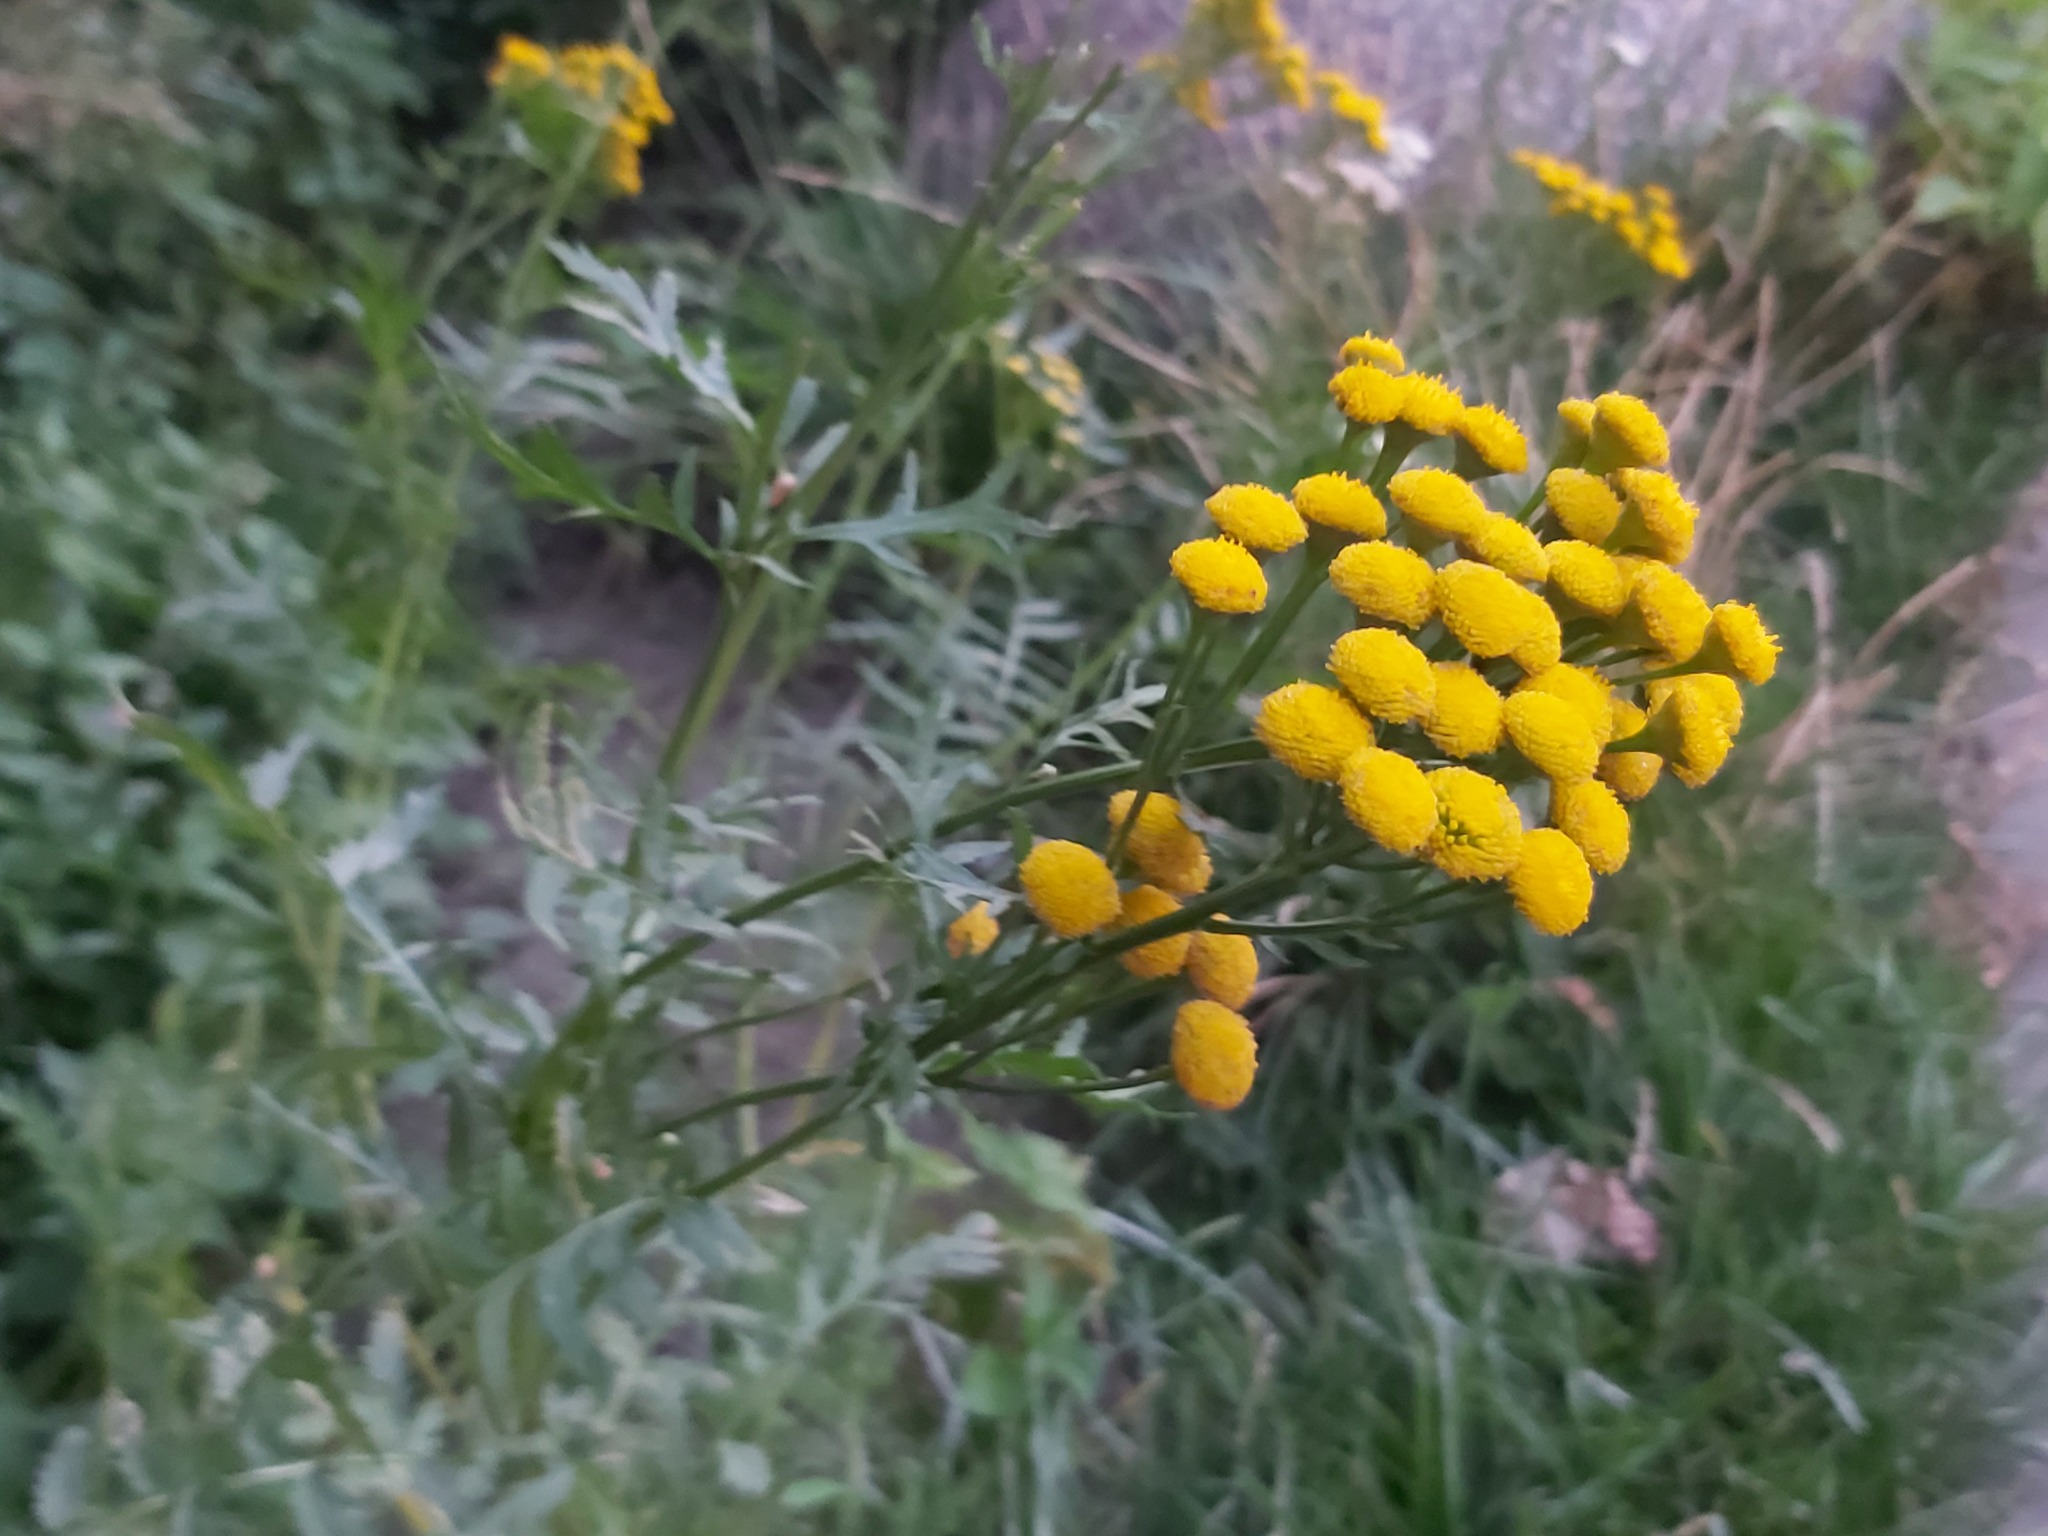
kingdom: Plantae
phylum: Tracheophyta
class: Magnoliopsida
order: Asterales
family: Asteraceae
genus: Tanacetum
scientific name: Tanacetum vulgare
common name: Common tansy
